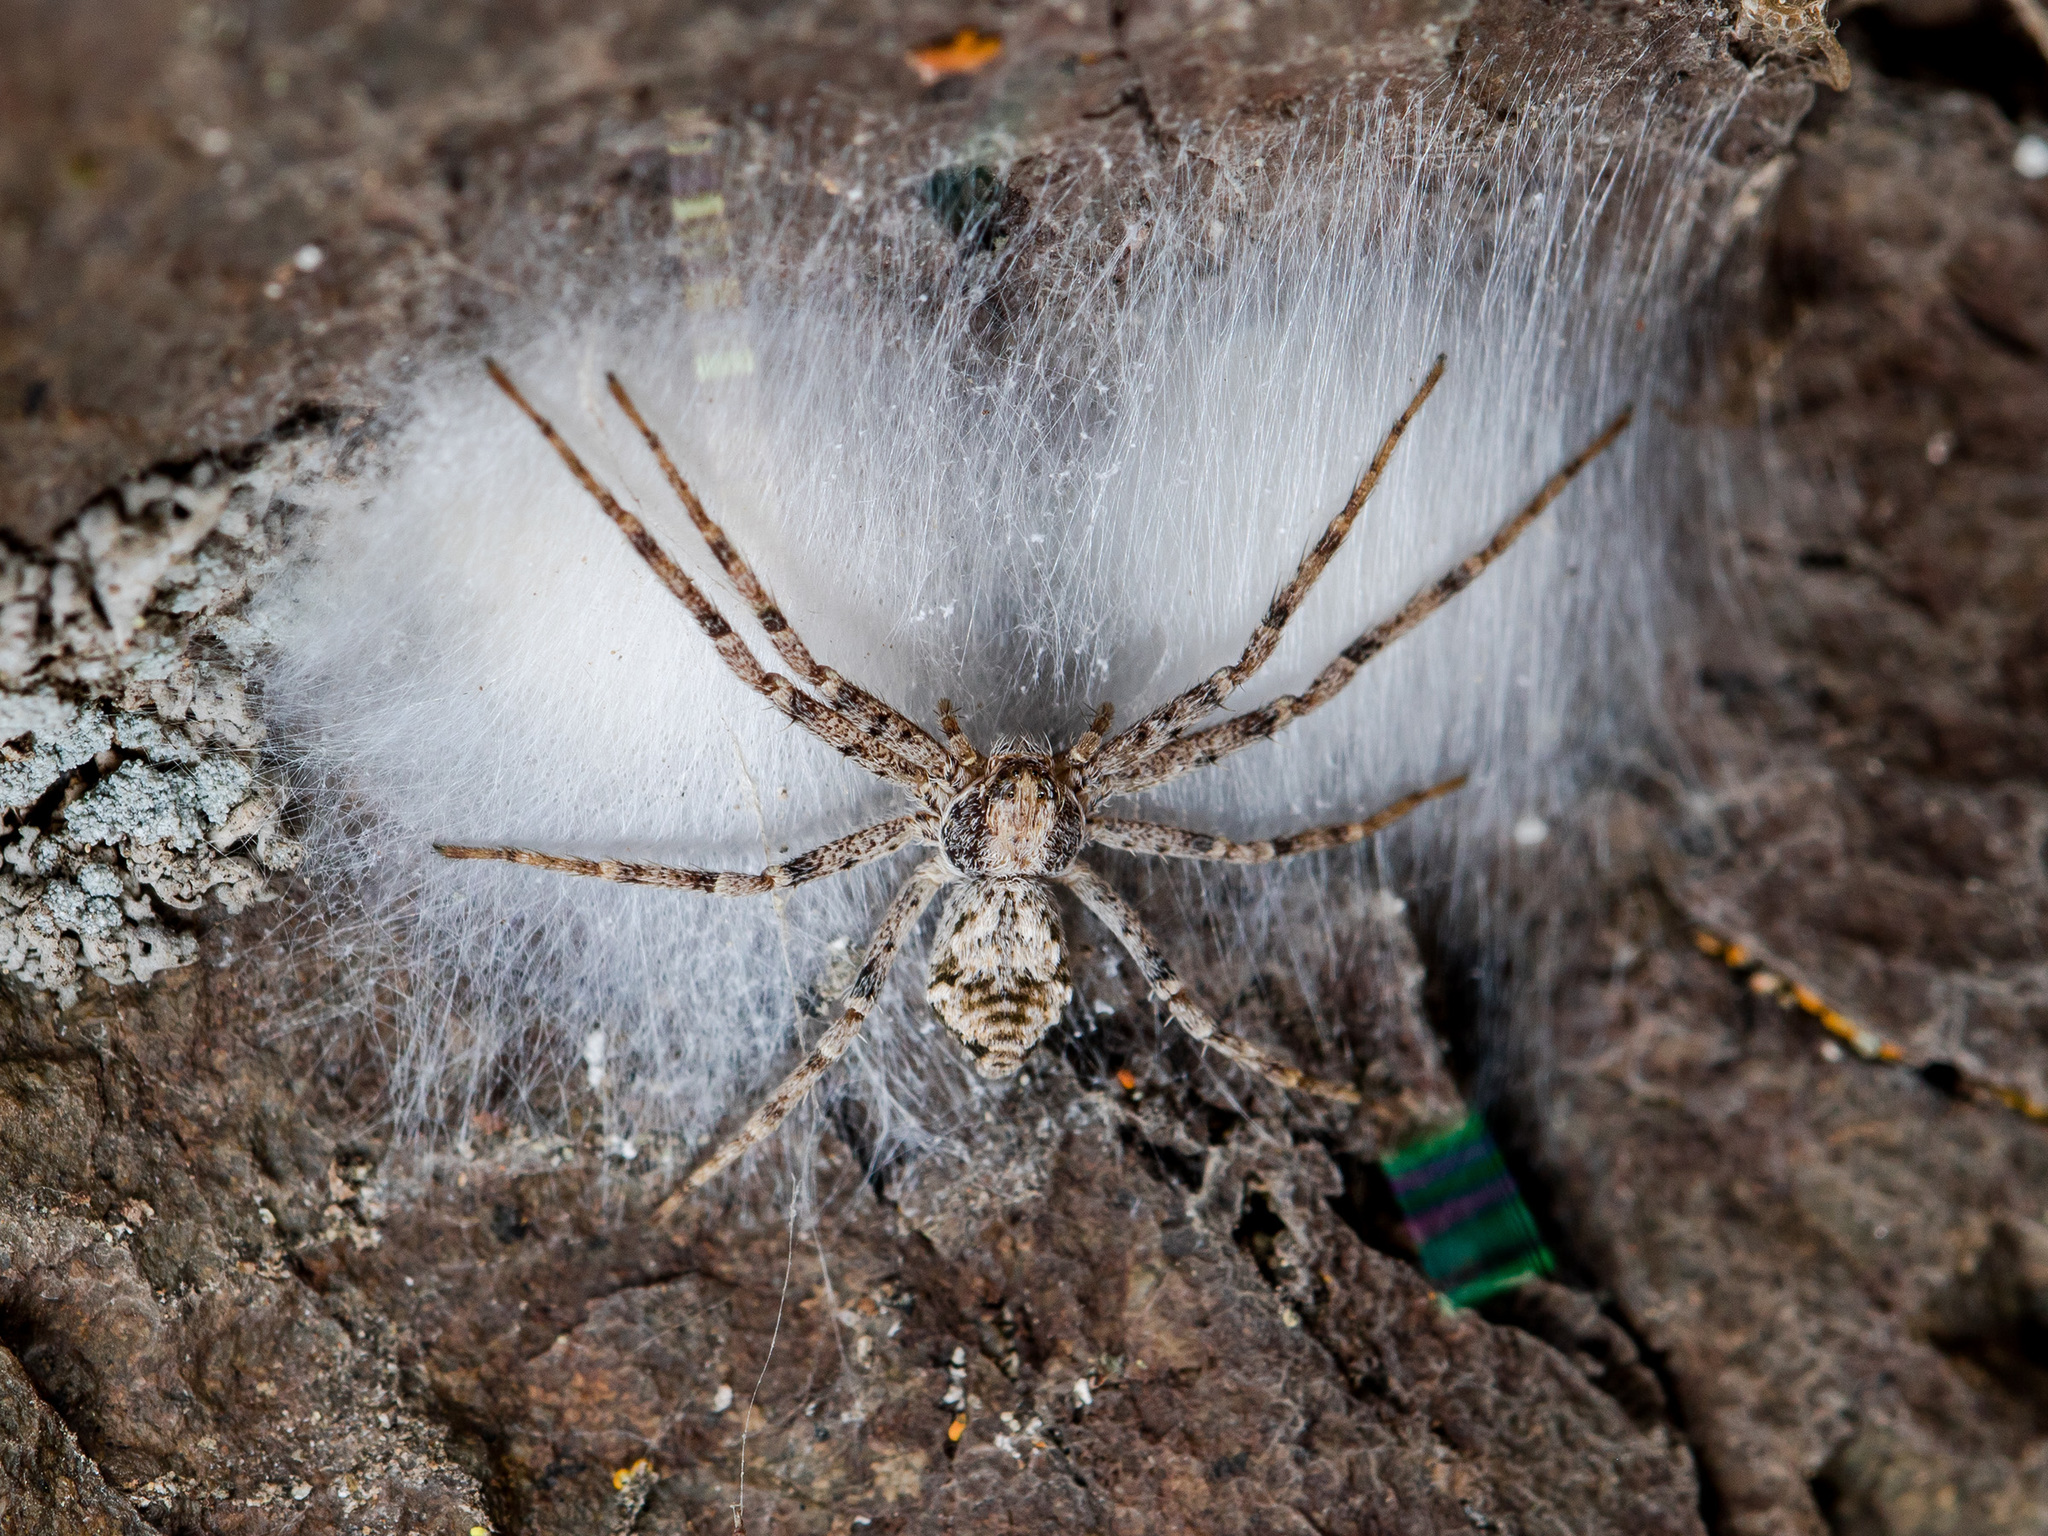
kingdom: Animalia
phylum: Arthropoda
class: Arachnida
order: Araneae
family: Philodromidae
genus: Rhysodromus
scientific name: Rhysodromus pictus
